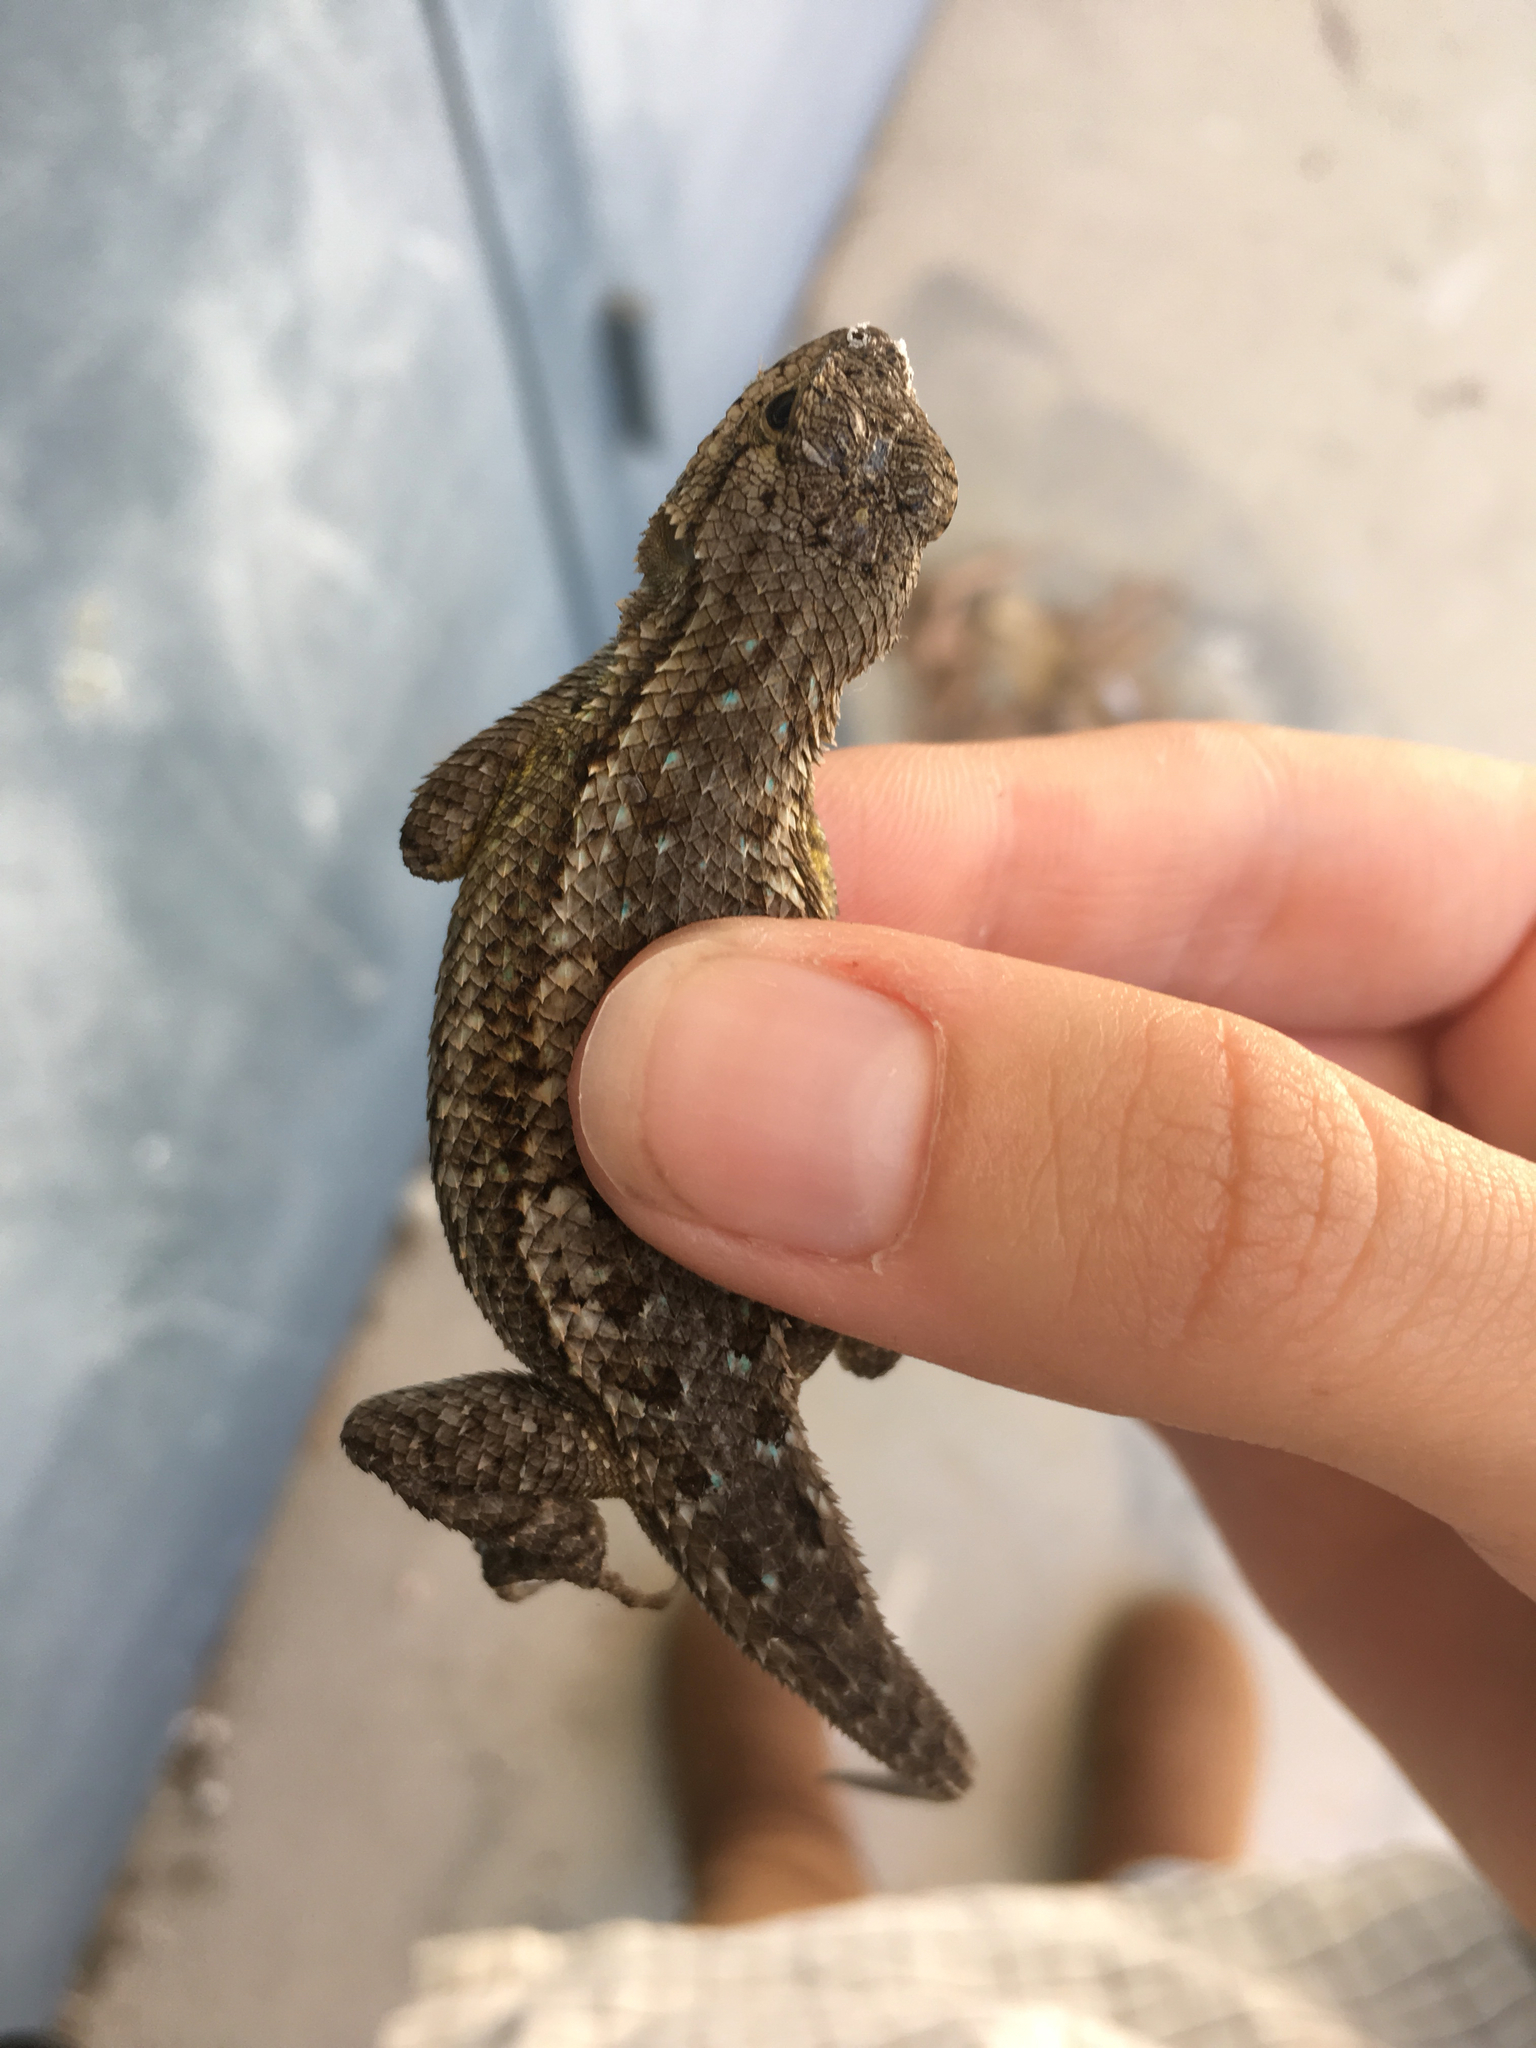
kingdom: Animalia
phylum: Chordata
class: Squamata
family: Phrynosomatidae
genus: Sceloporus
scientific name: Sceloporus occidentalis
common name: Western fence lizard
